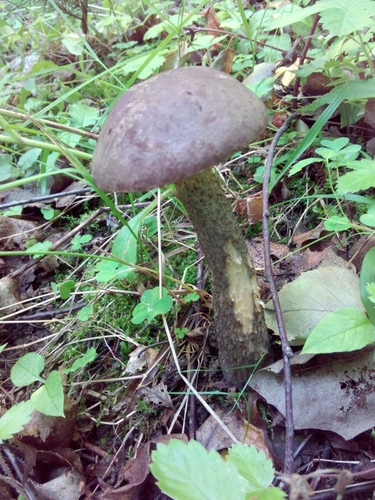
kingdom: Fungi
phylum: Basidiomycota
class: Agaricomycetes
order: Boletales
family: Boletaceae
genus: Leccinum
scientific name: Leccinum scabrum
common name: Blushing bolete
